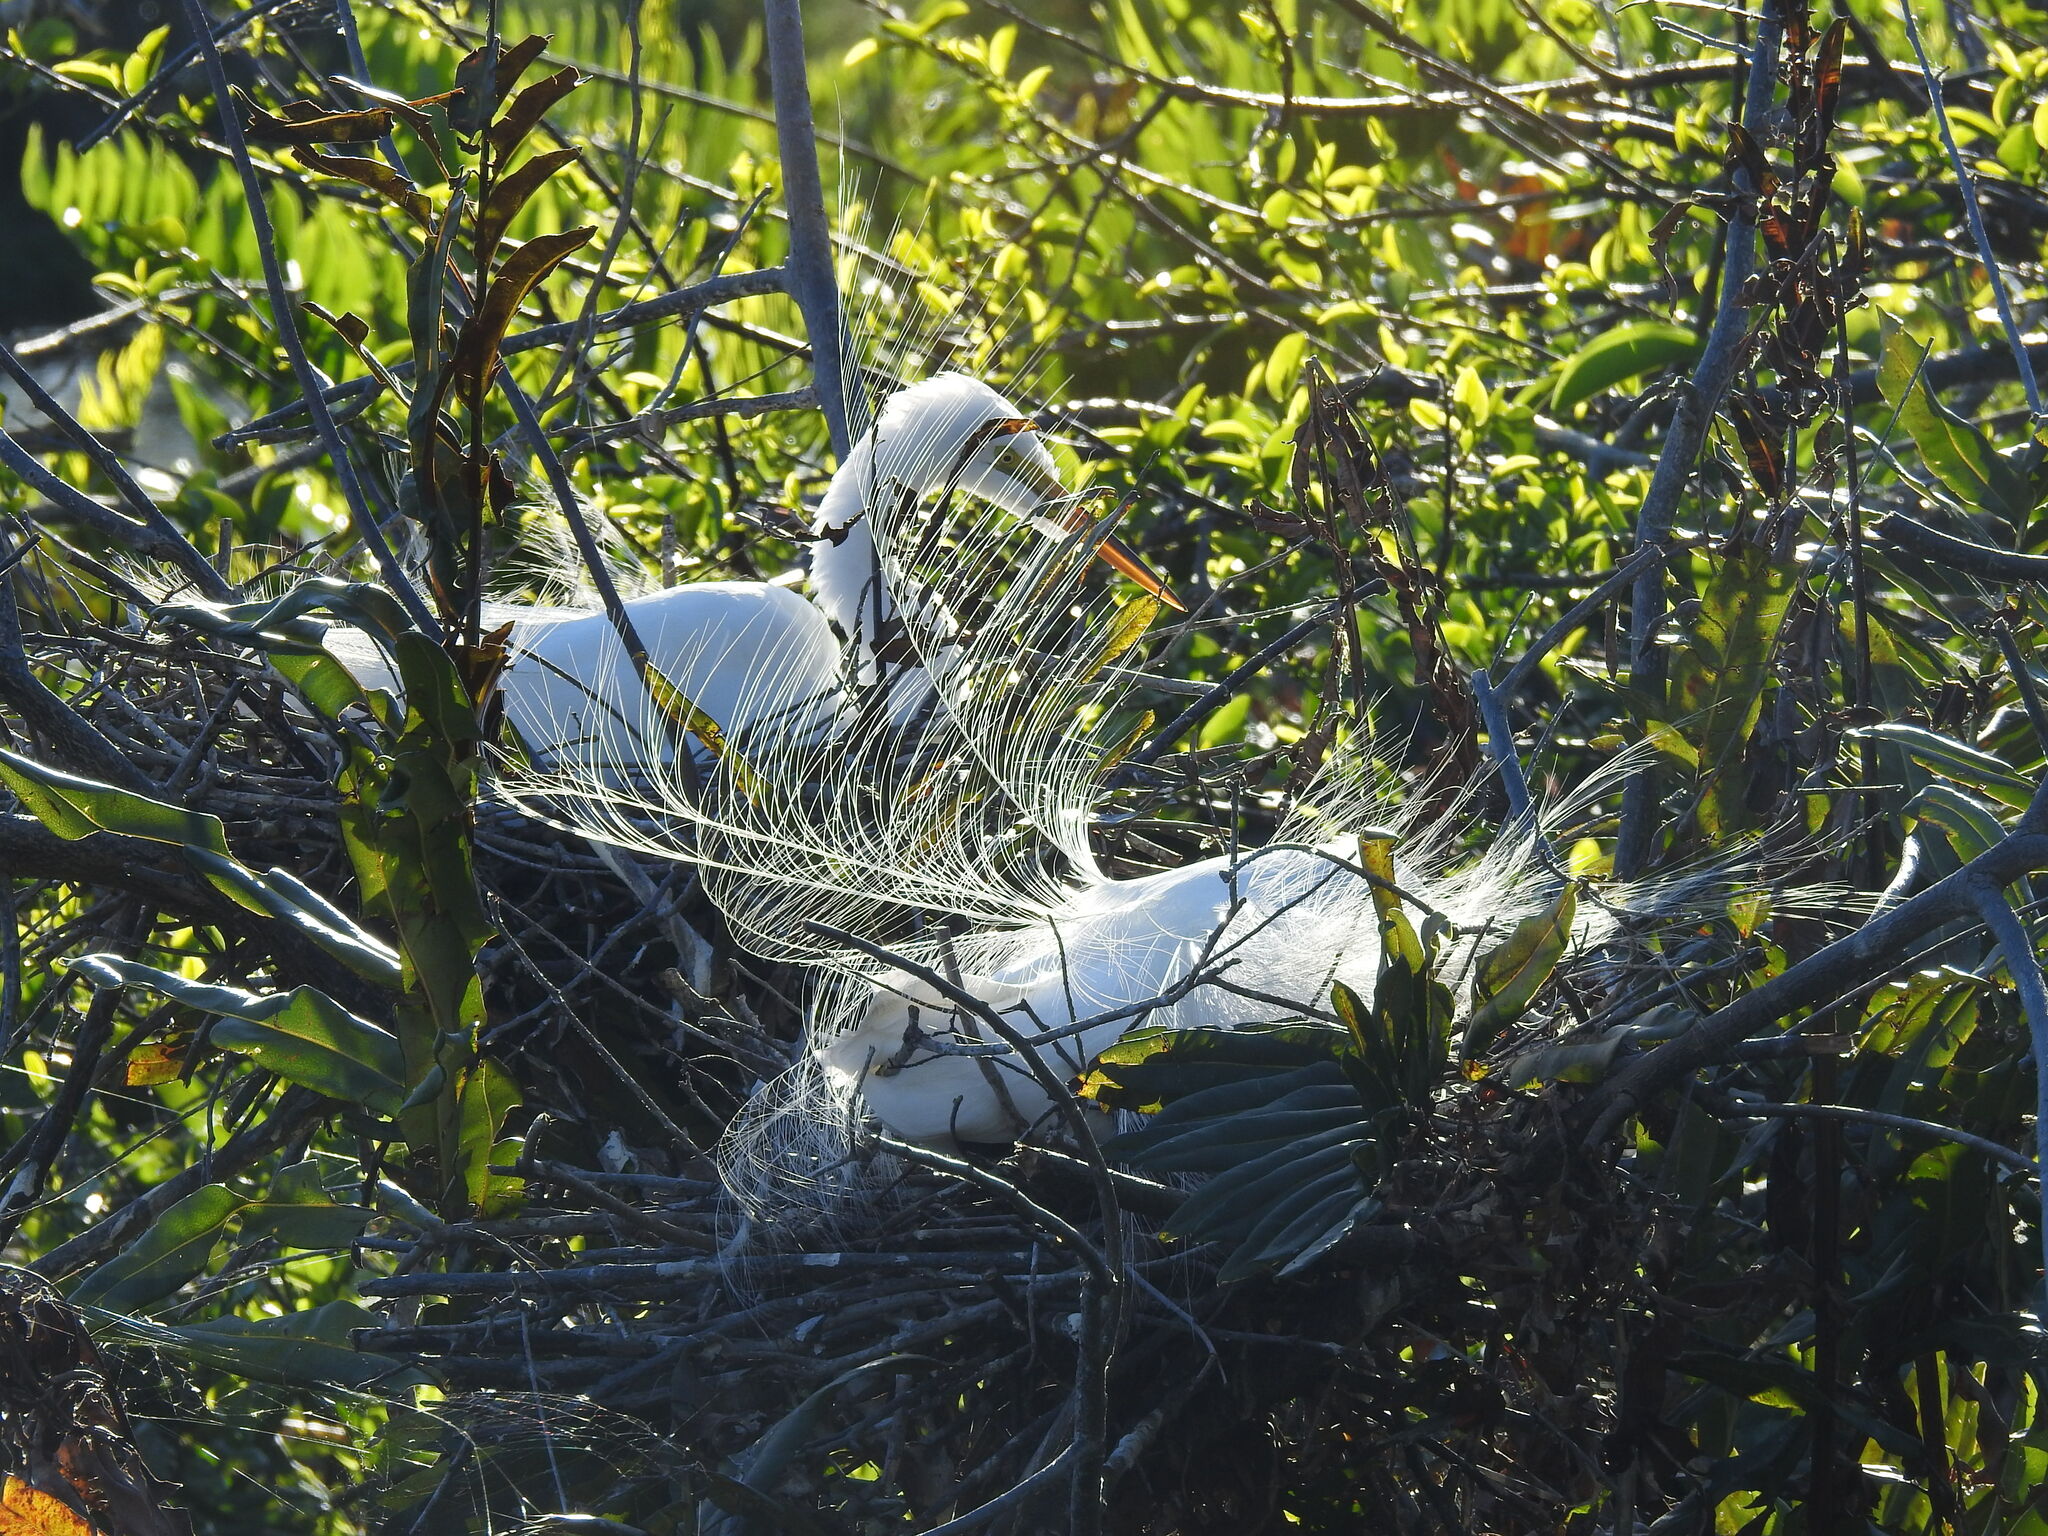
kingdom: Animalia
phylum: Chordata
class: Aves
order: Pelecaniformes
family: Ardeidae
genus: Ardea
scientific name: Ardea alba
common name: Great egret
